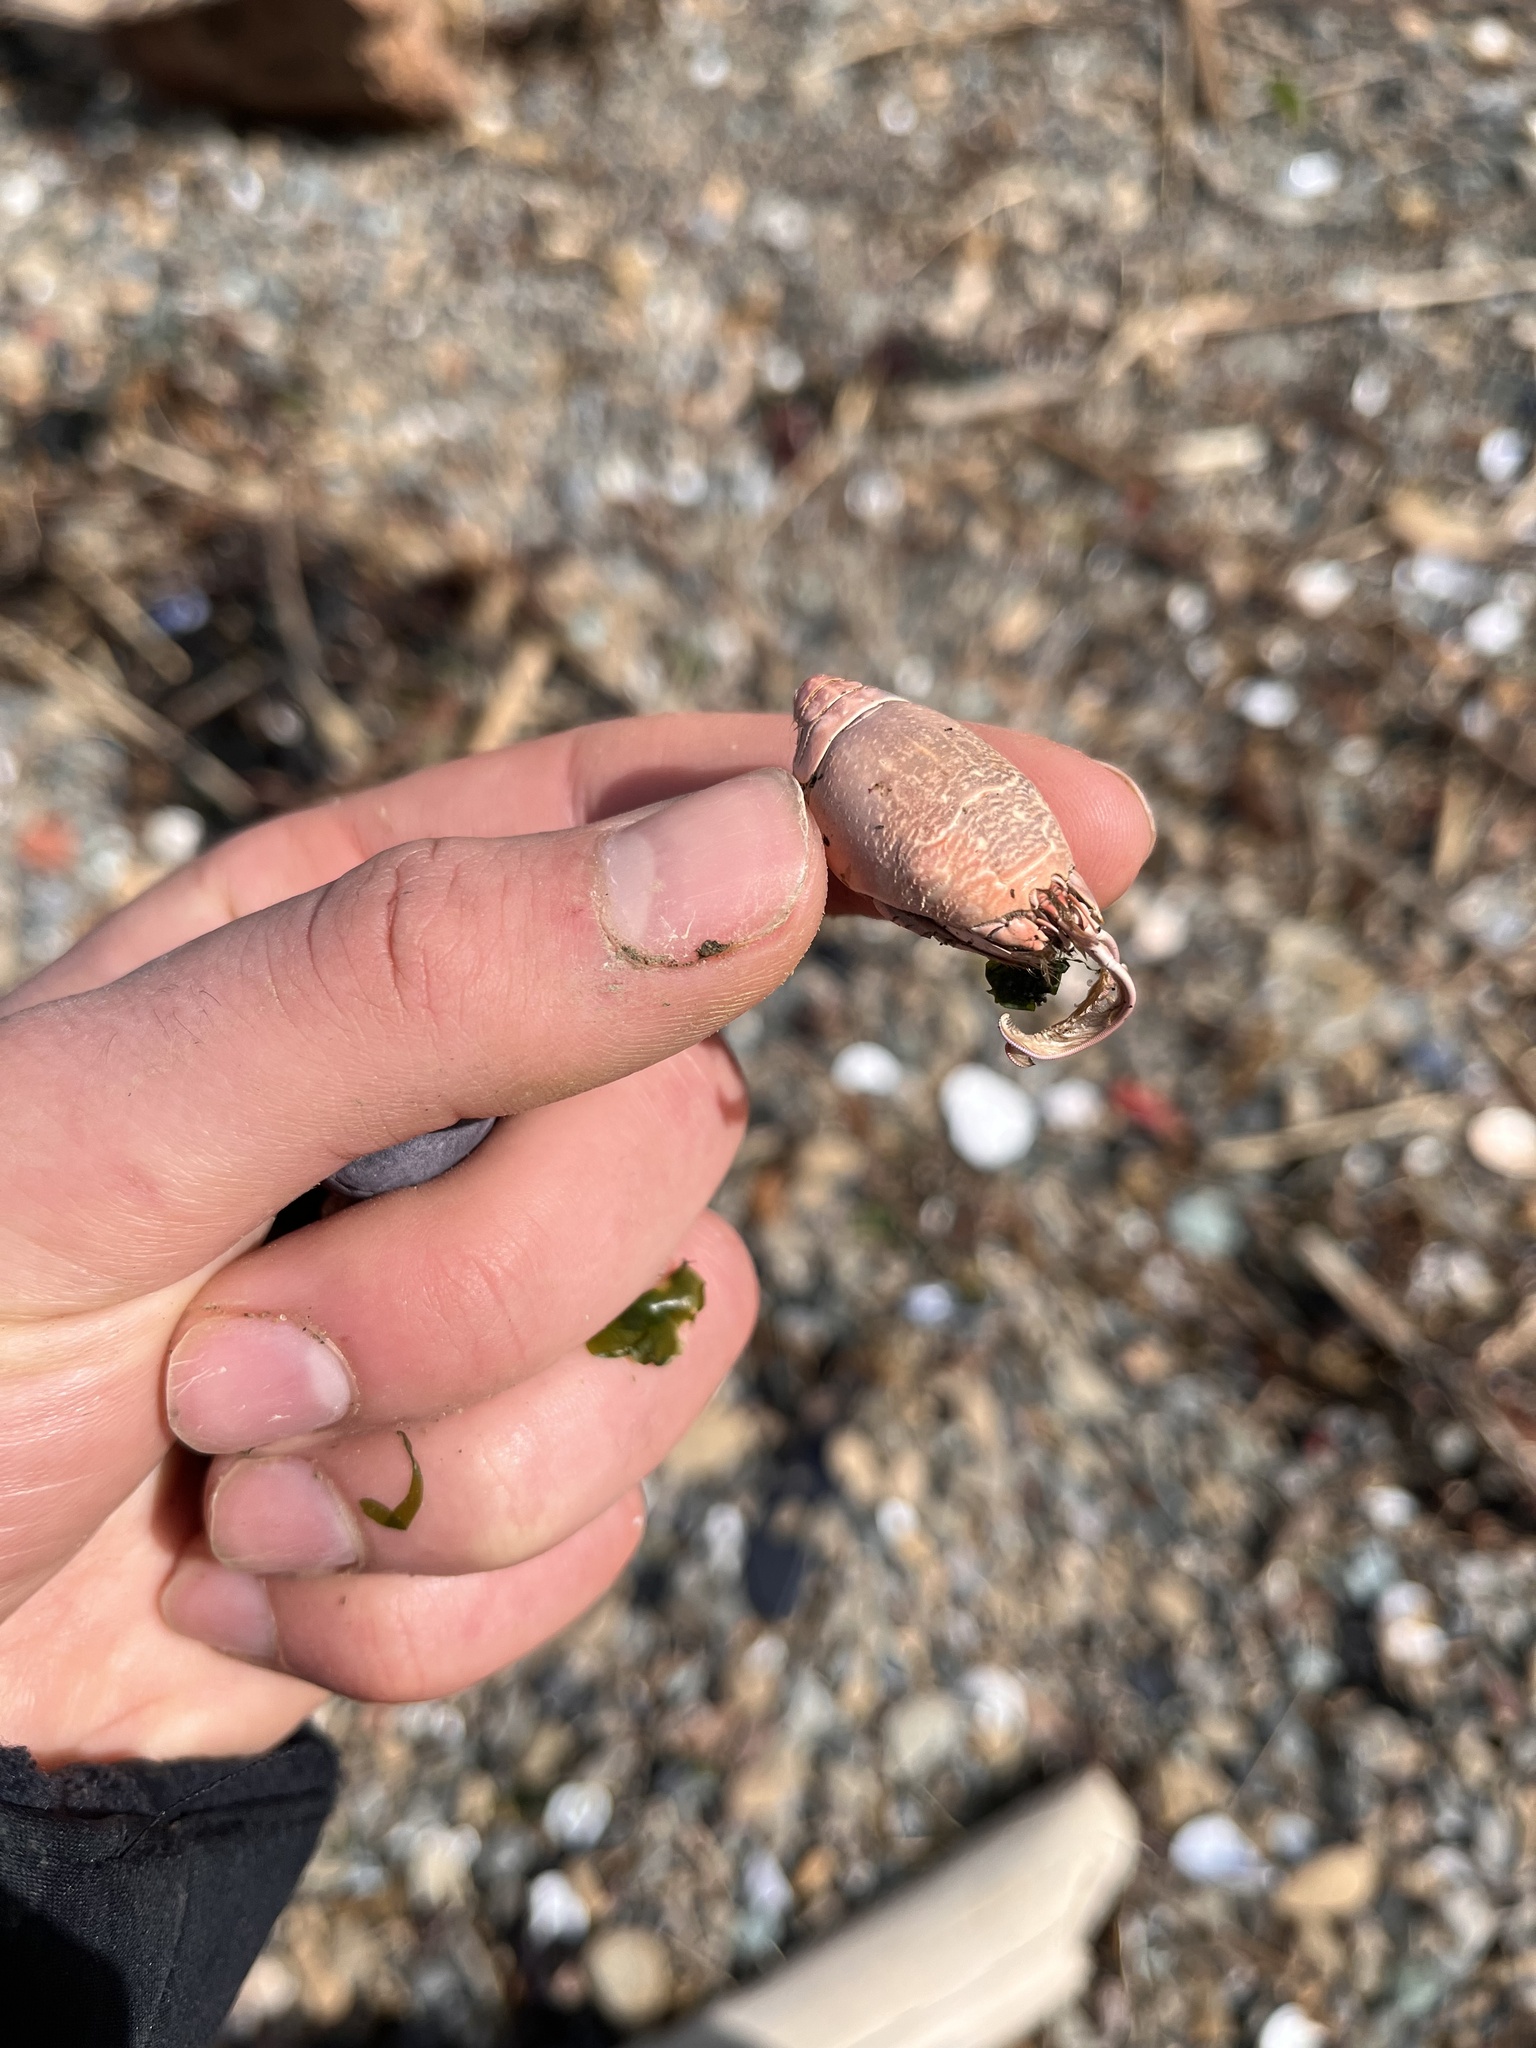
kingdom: Animalia
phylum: Arthropoda
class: Malacostraca
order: Decapoda
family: Hippidae
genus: Emerita
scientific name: Emerita analoga
